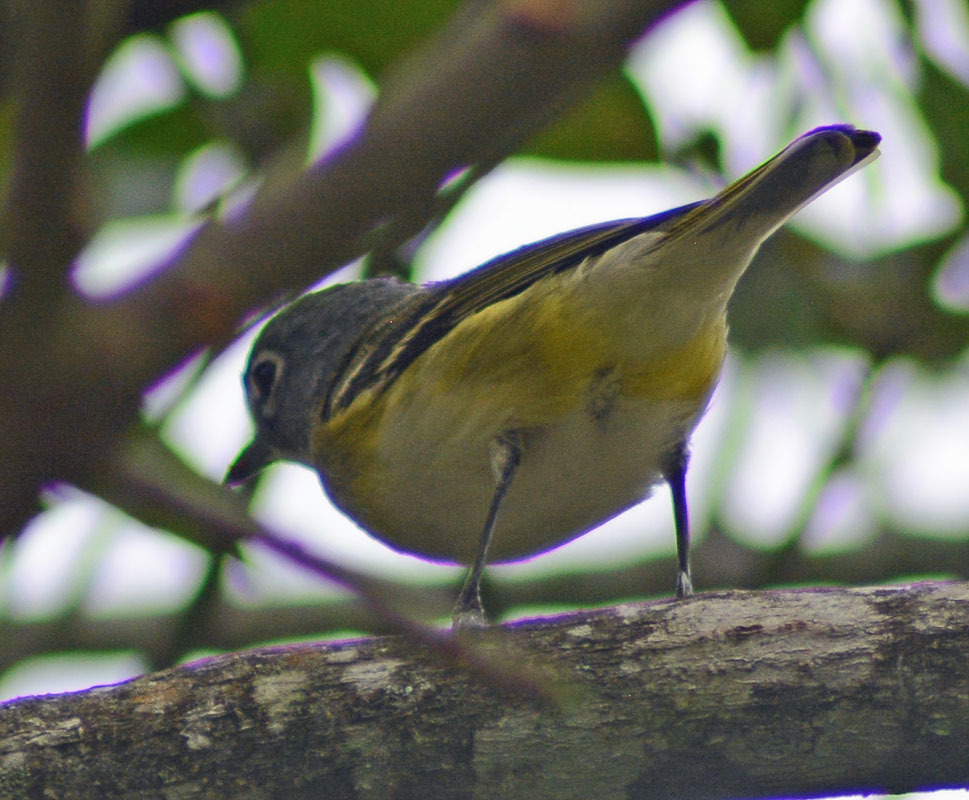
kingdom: Animalia
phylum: Chordata
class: Aves
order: Passeriformes
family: Vireonidae
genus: Vireo
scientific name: Vireo solitarius
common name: Blue-headed vireo
